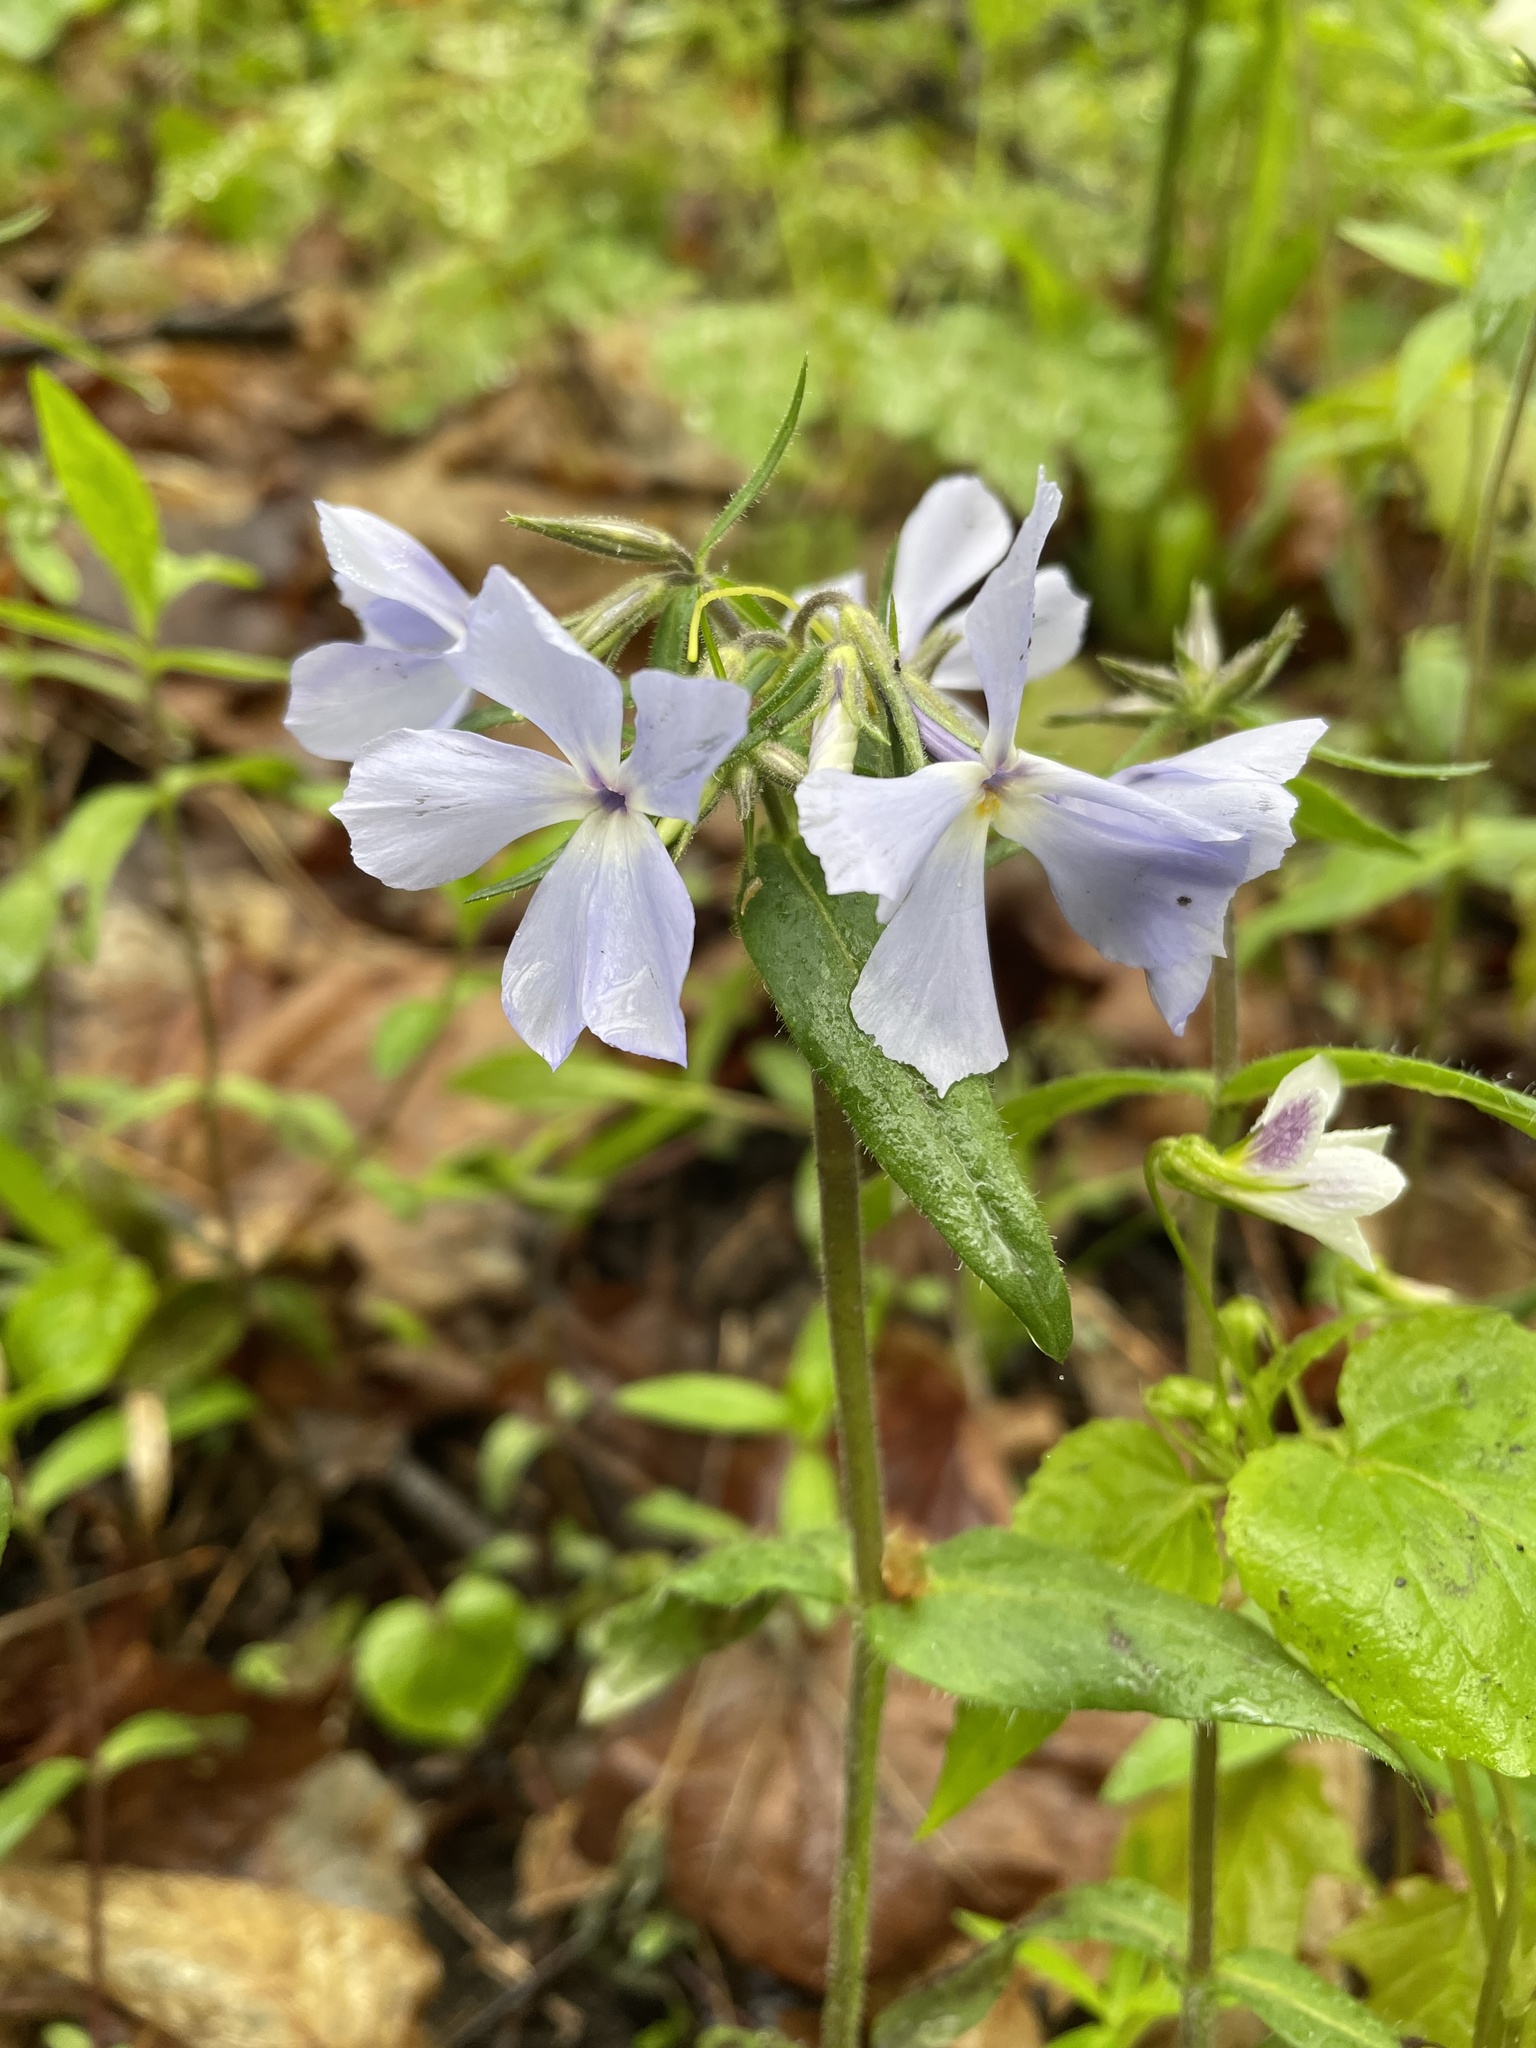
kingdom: Plantae
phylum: Tracheophyta
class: Magnoliopsida
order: Ericales
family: Polemoniaceae
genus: Phlox
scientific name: Phlox divaricata
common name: Blue phlox
